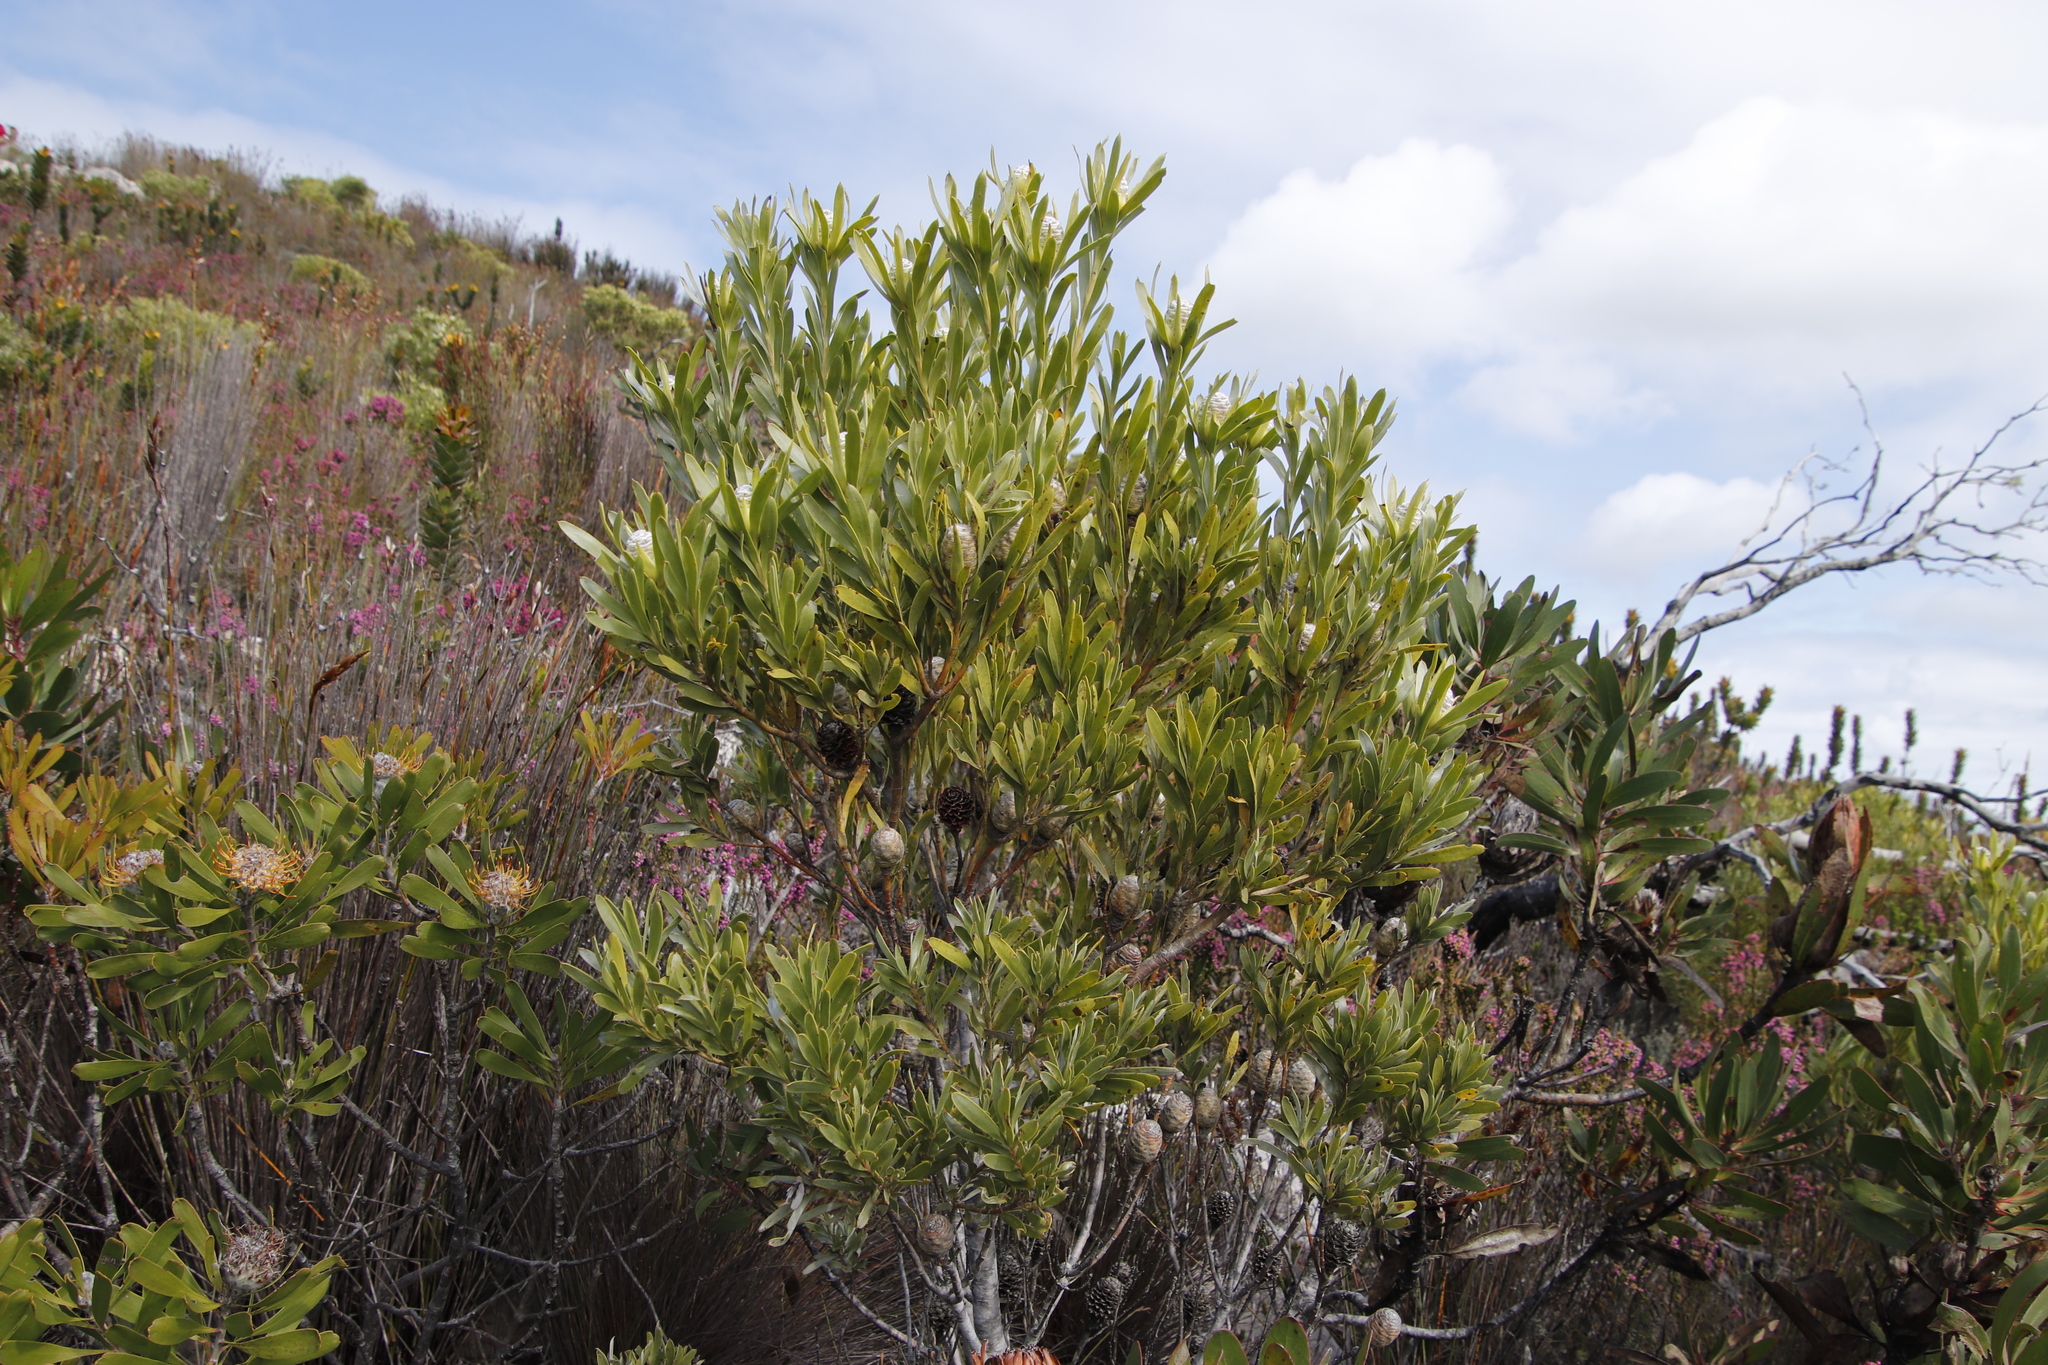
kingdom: Plantae
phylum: Tracheophyta
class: Magnoliopsida
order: Proteales
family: Proteaceae
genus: Leucadendron
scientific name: Leucadendron meridianum
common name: Limestone conebush
